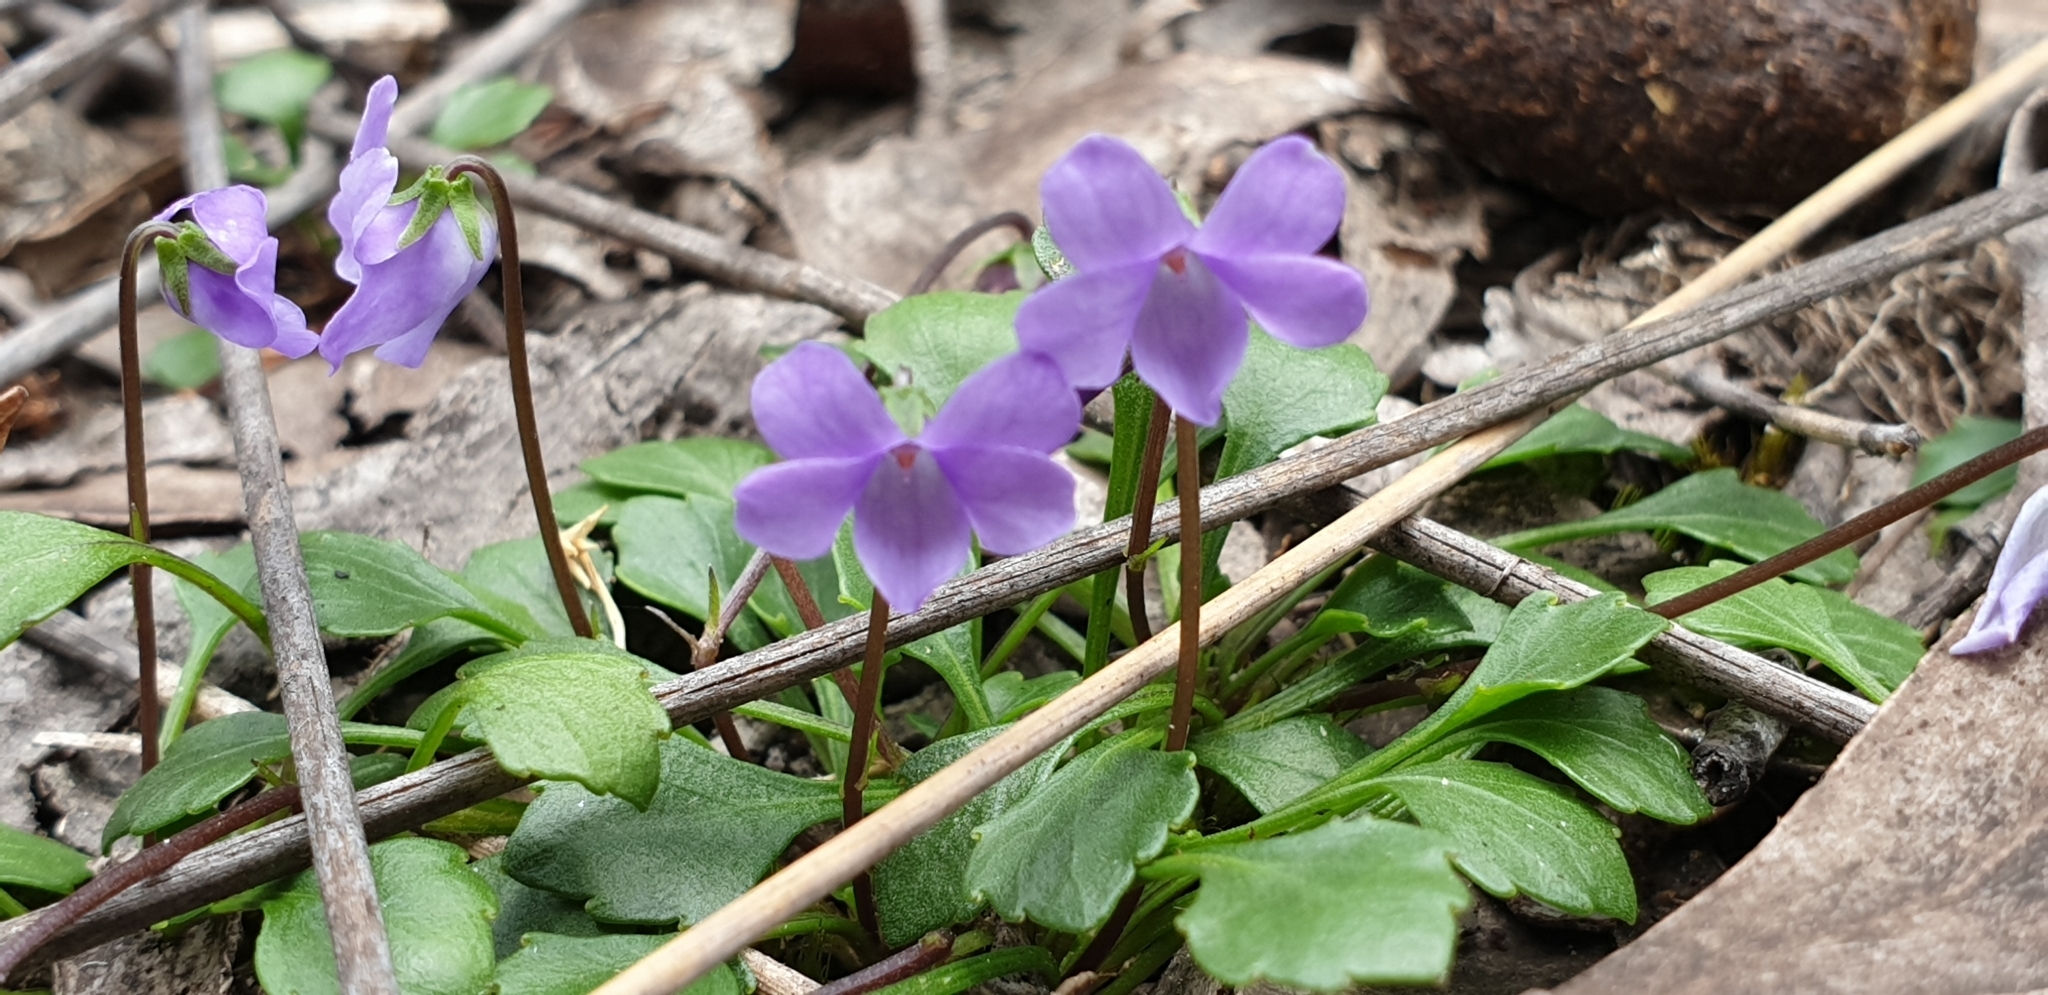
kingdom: Plantae
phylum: Tracheophyta
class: Magnoliopsida
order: Malpighiales
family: Violaceae
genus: Viola
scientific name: Viola sieberiana
